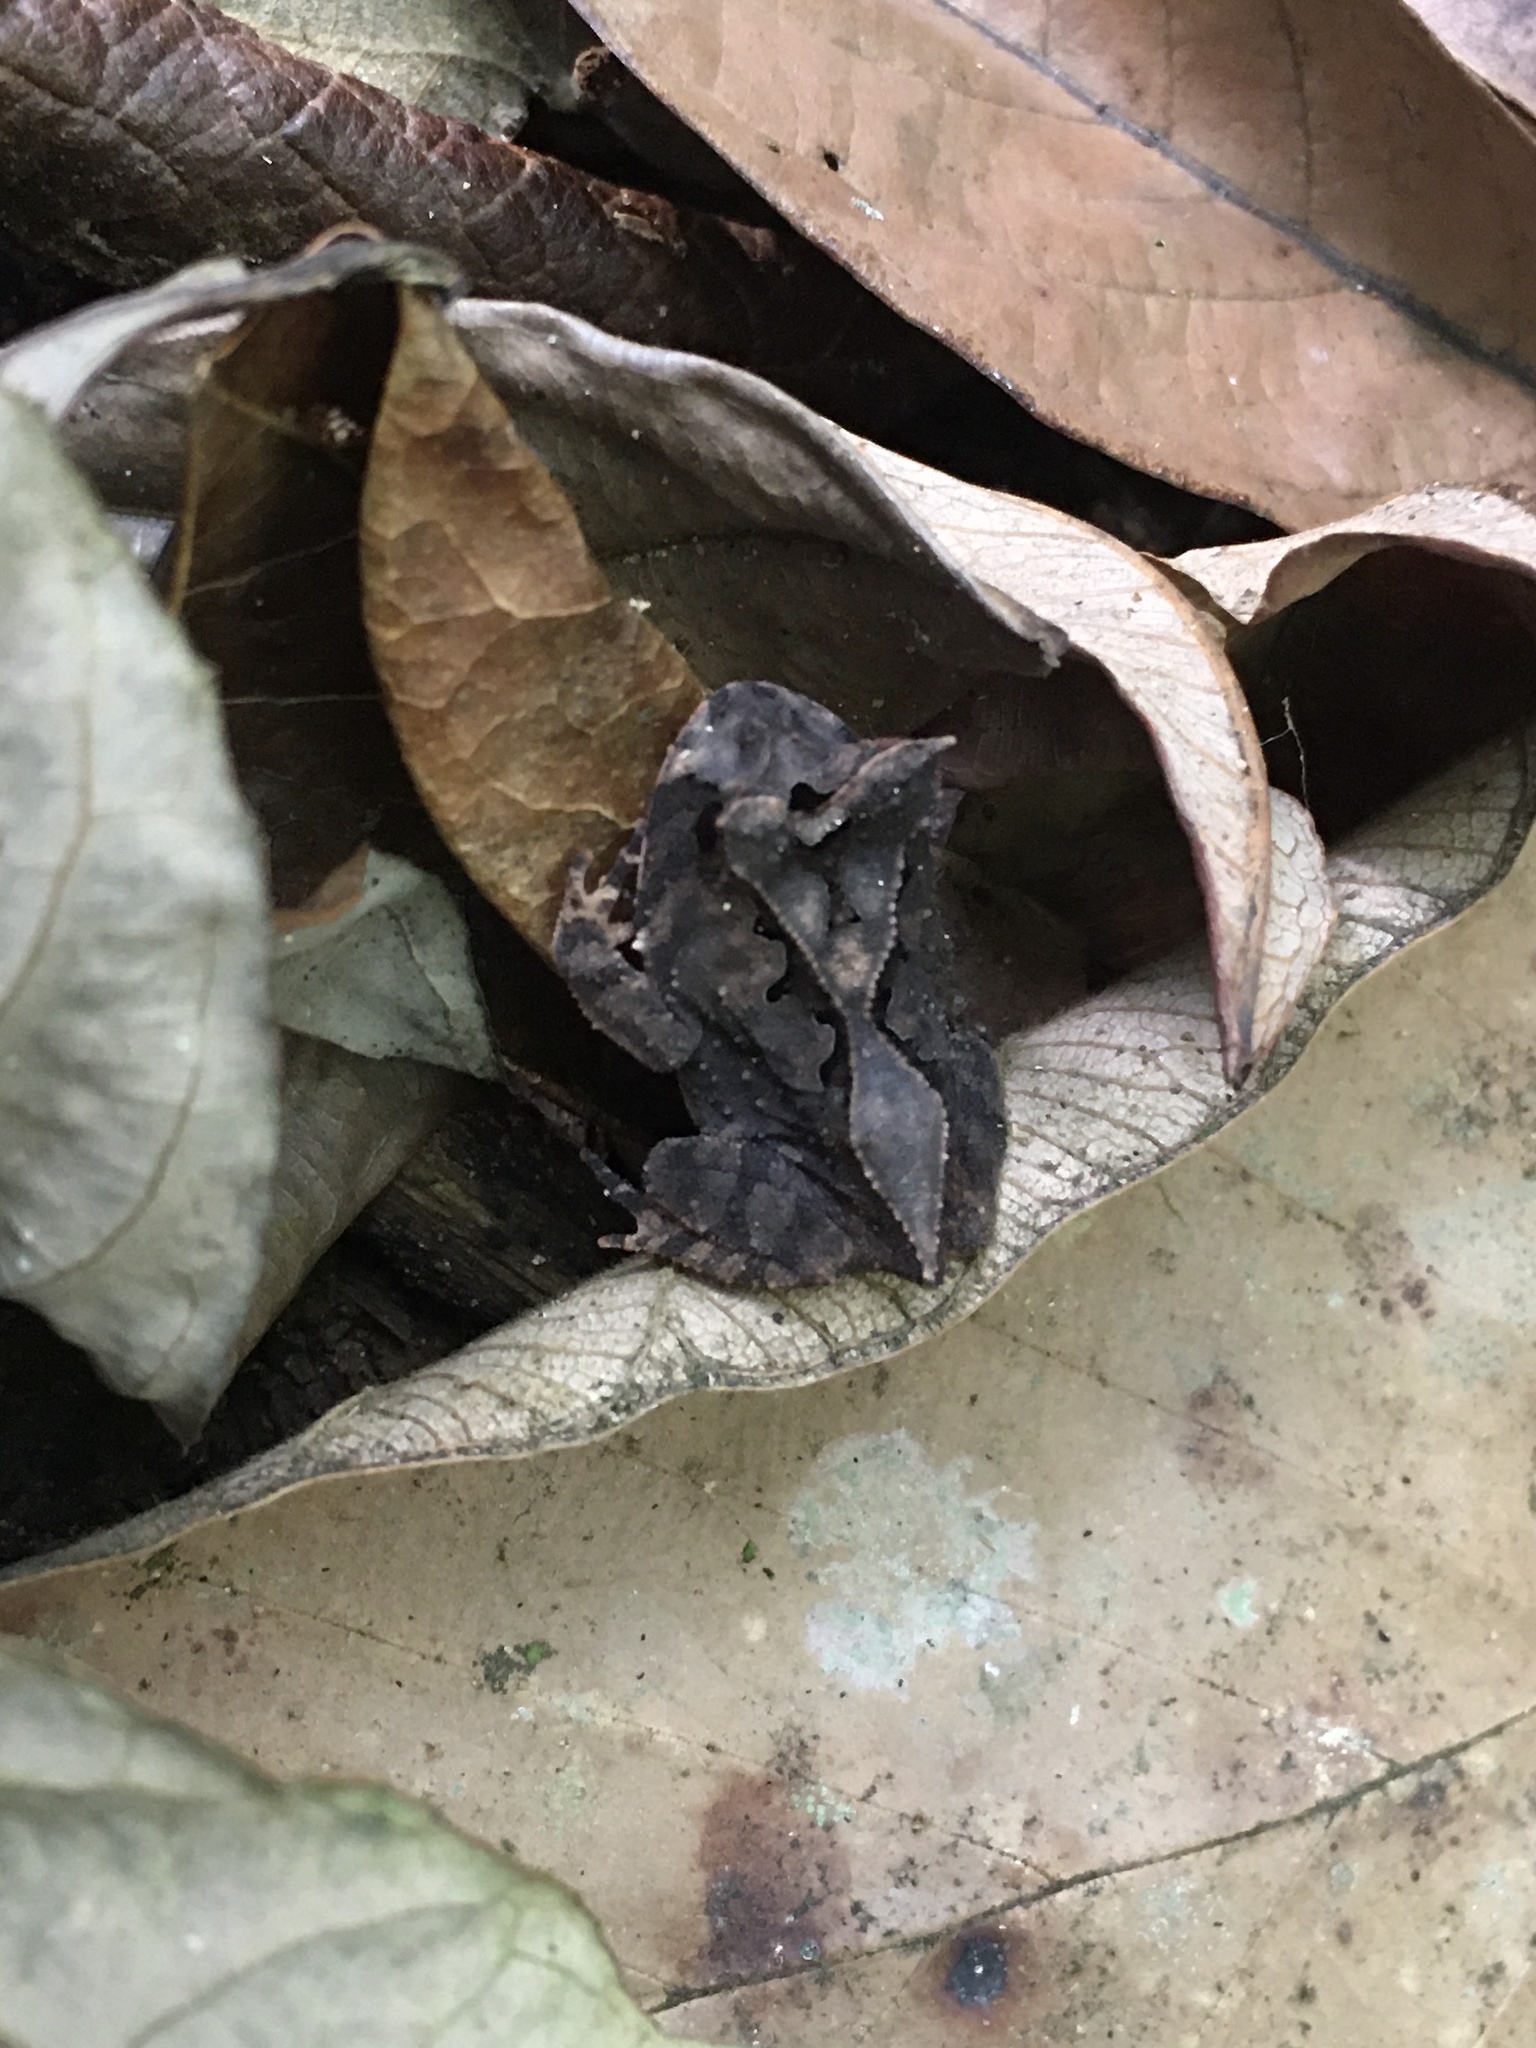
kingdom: Animalia
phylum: Chordata
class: Amphibia
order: Anura
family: Odontophrynidae
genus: Proceratophrys
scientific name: Proceratophrys renalis
